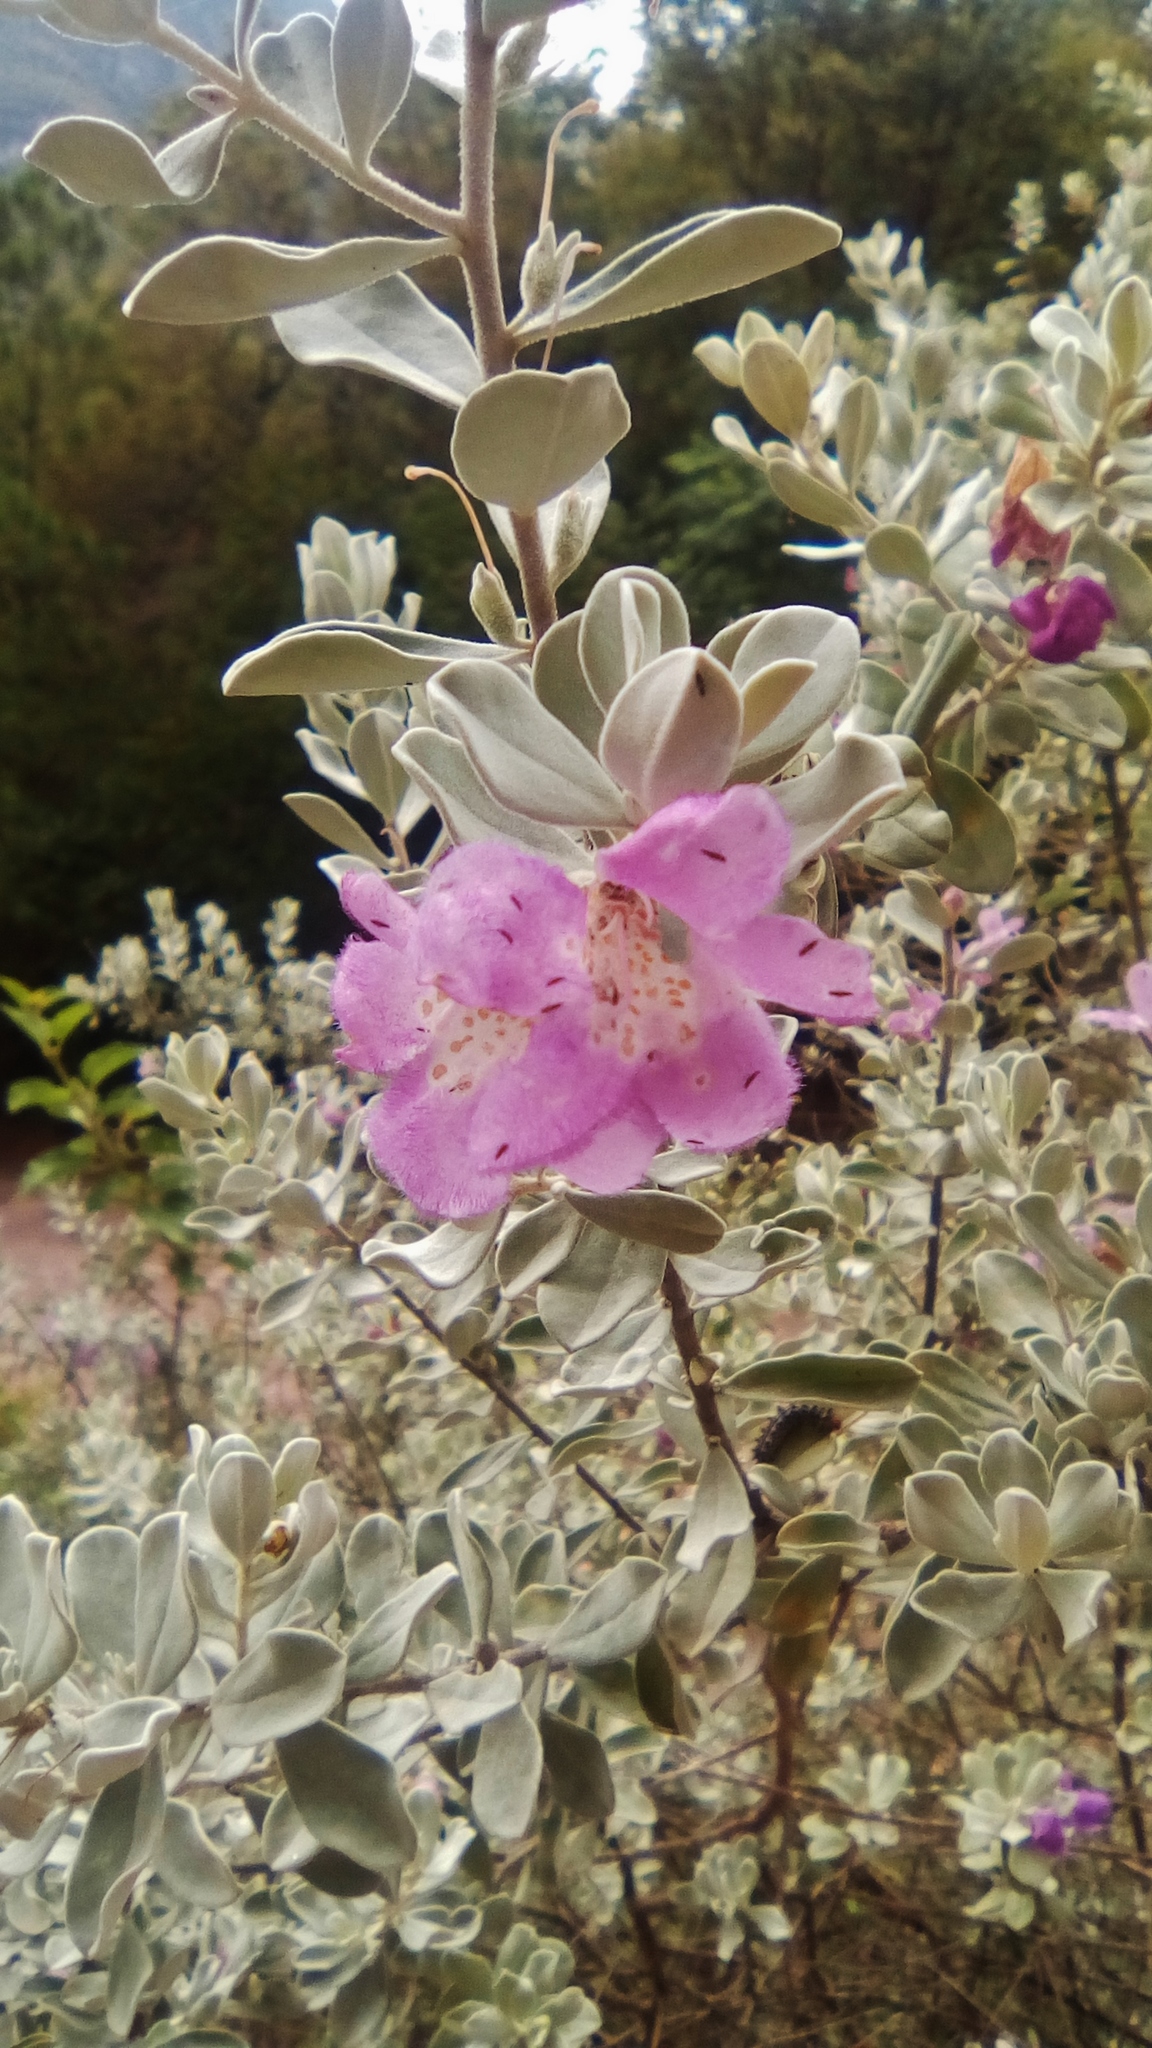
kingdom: Plantae
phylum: Tracheophyta
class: Magnoliopsida
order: Lamiales
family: Scrophulariaceae
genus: Leucophyllum
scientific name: Leucophyllum frutescens
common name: Texas silverleaf
